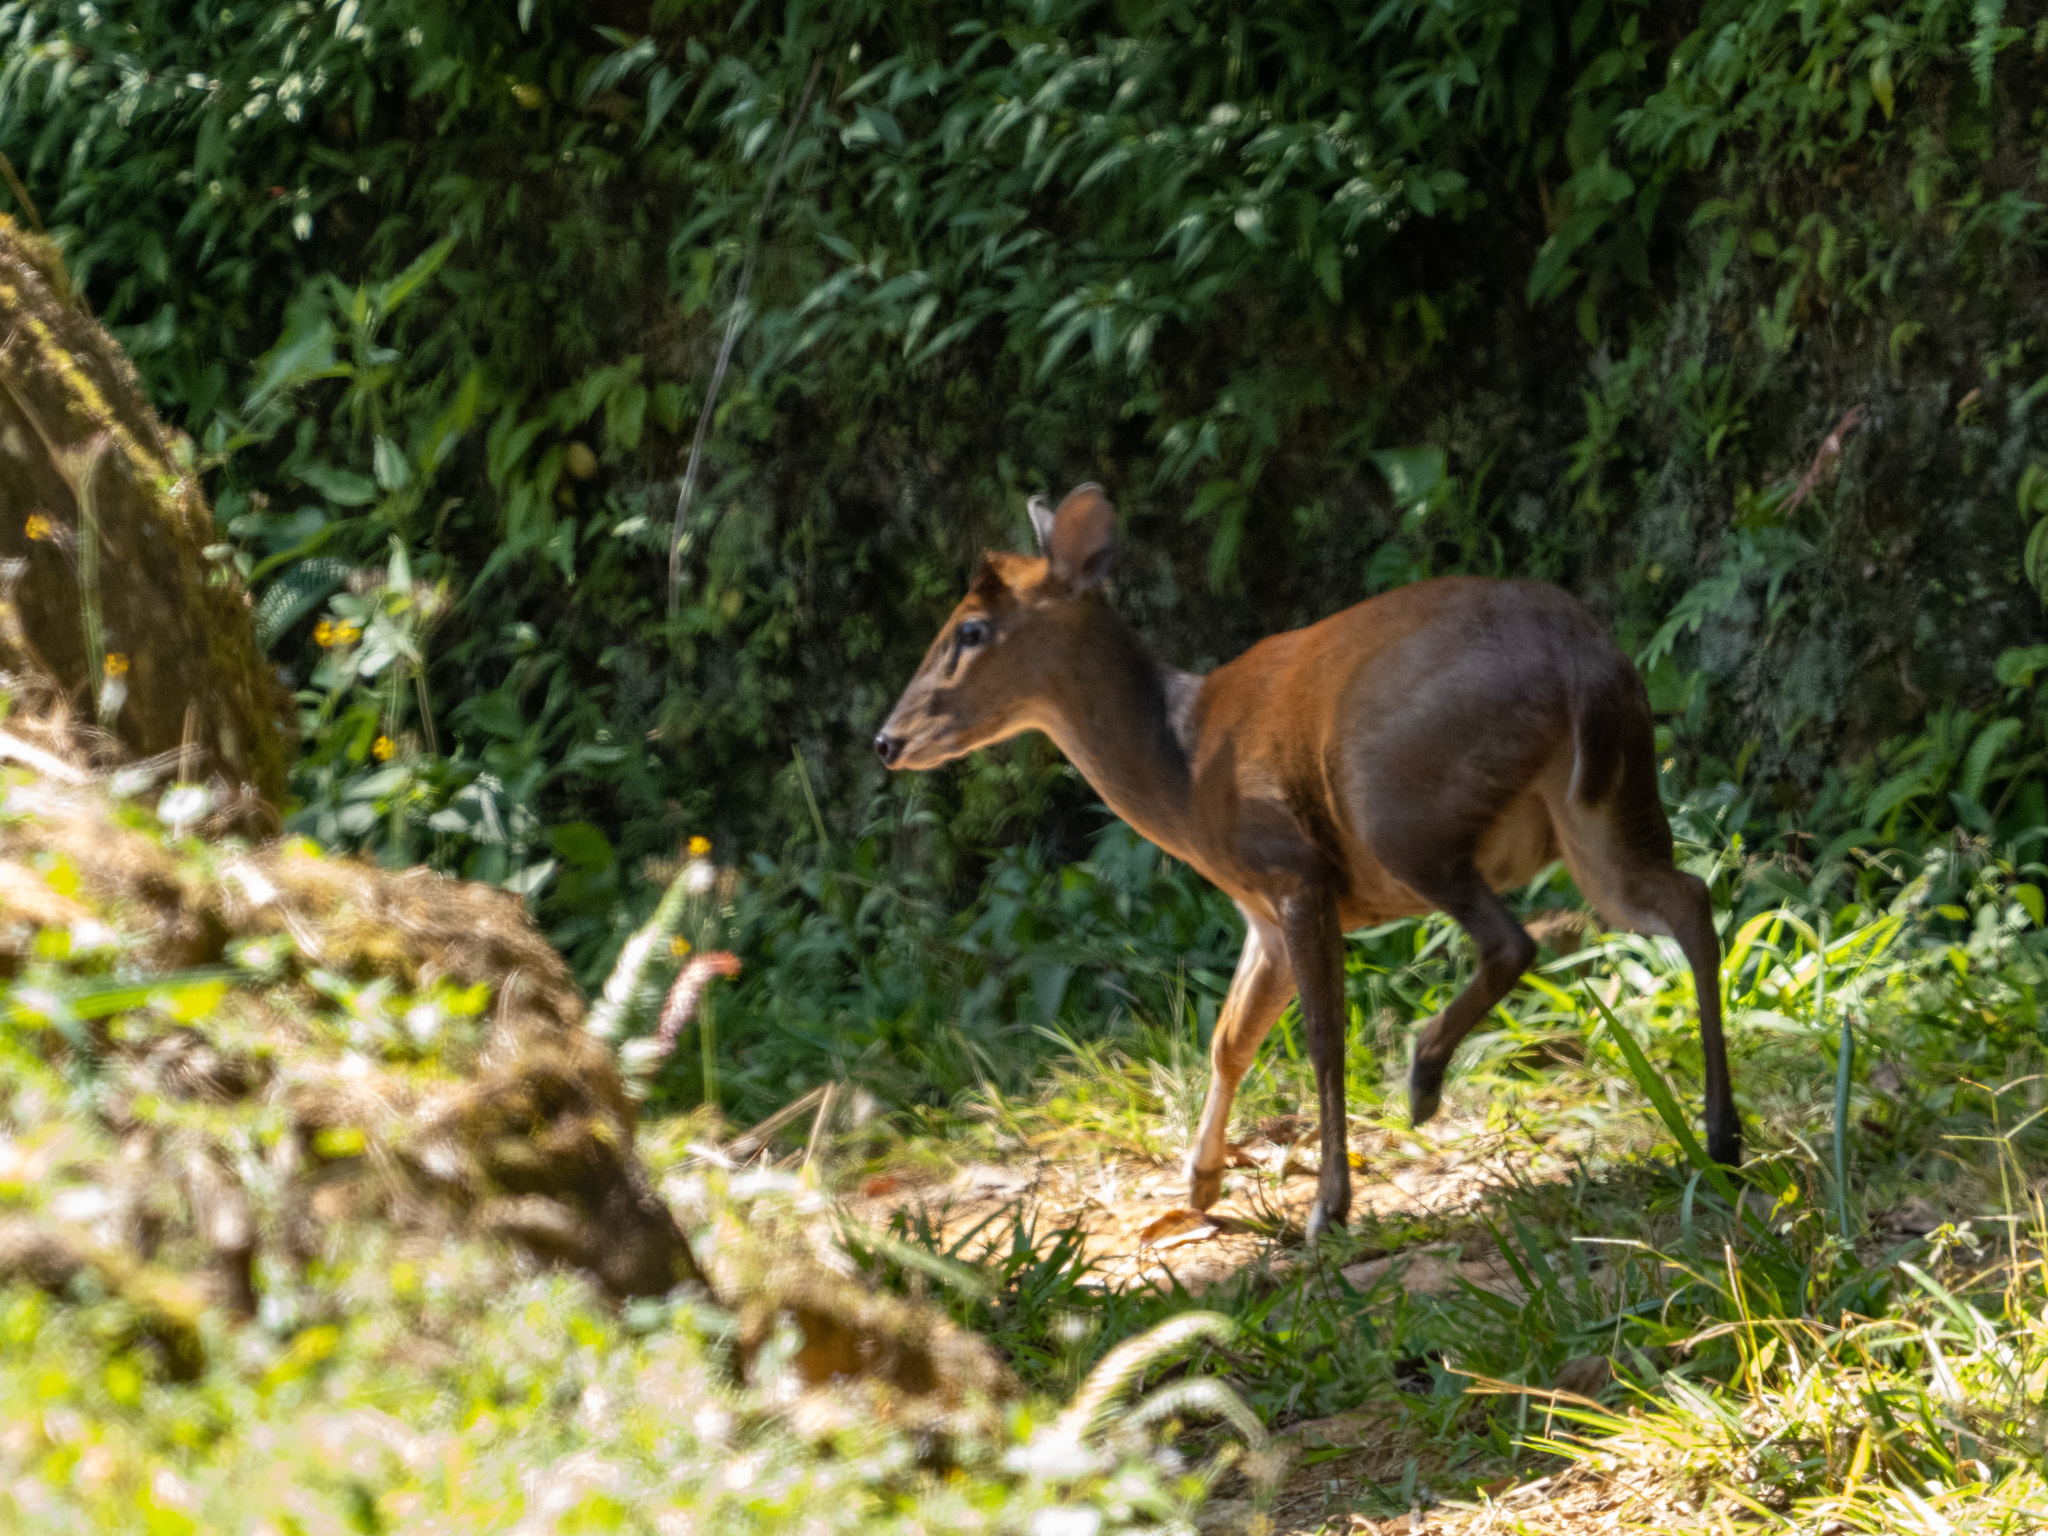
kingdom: Animalia
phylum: Chordata
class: Mammalia
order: Artiodactyla
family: Cervidae
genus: Muntiacus
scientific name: Muntiacus muntjak
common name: Indian muntjac
